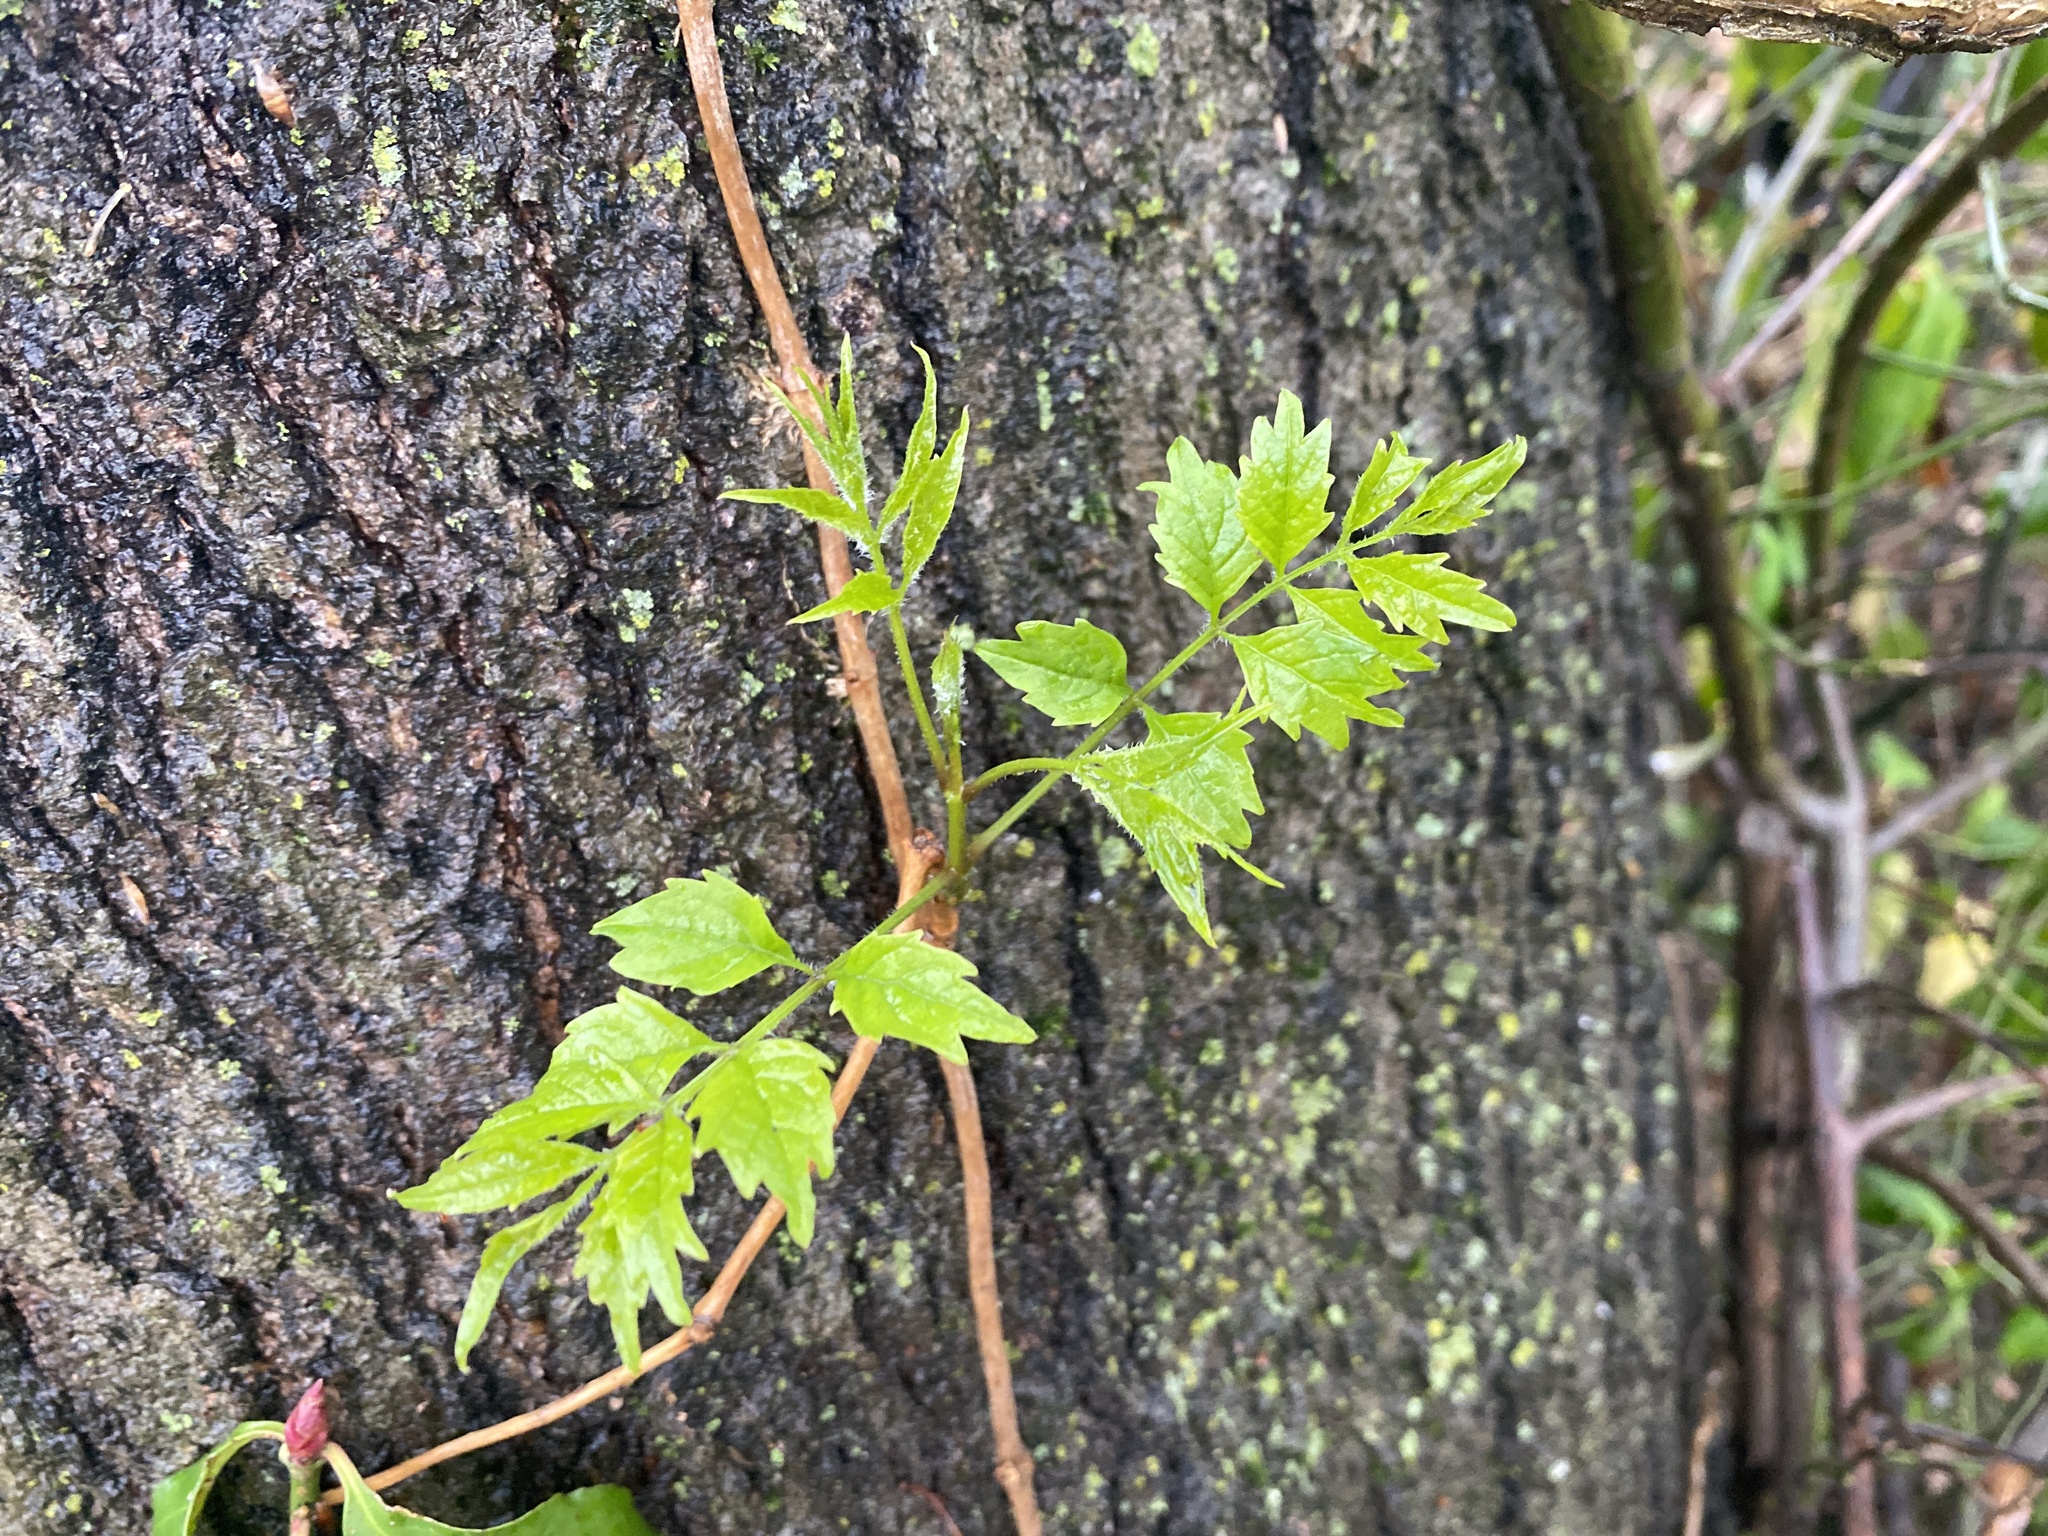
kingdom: Plantae
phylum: Tracheophyta
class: Magnoliopsida
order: Lamiales
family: Bignoniaceae
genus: Campsis
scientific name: Campsis radicans
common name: Trumpet-creeper
